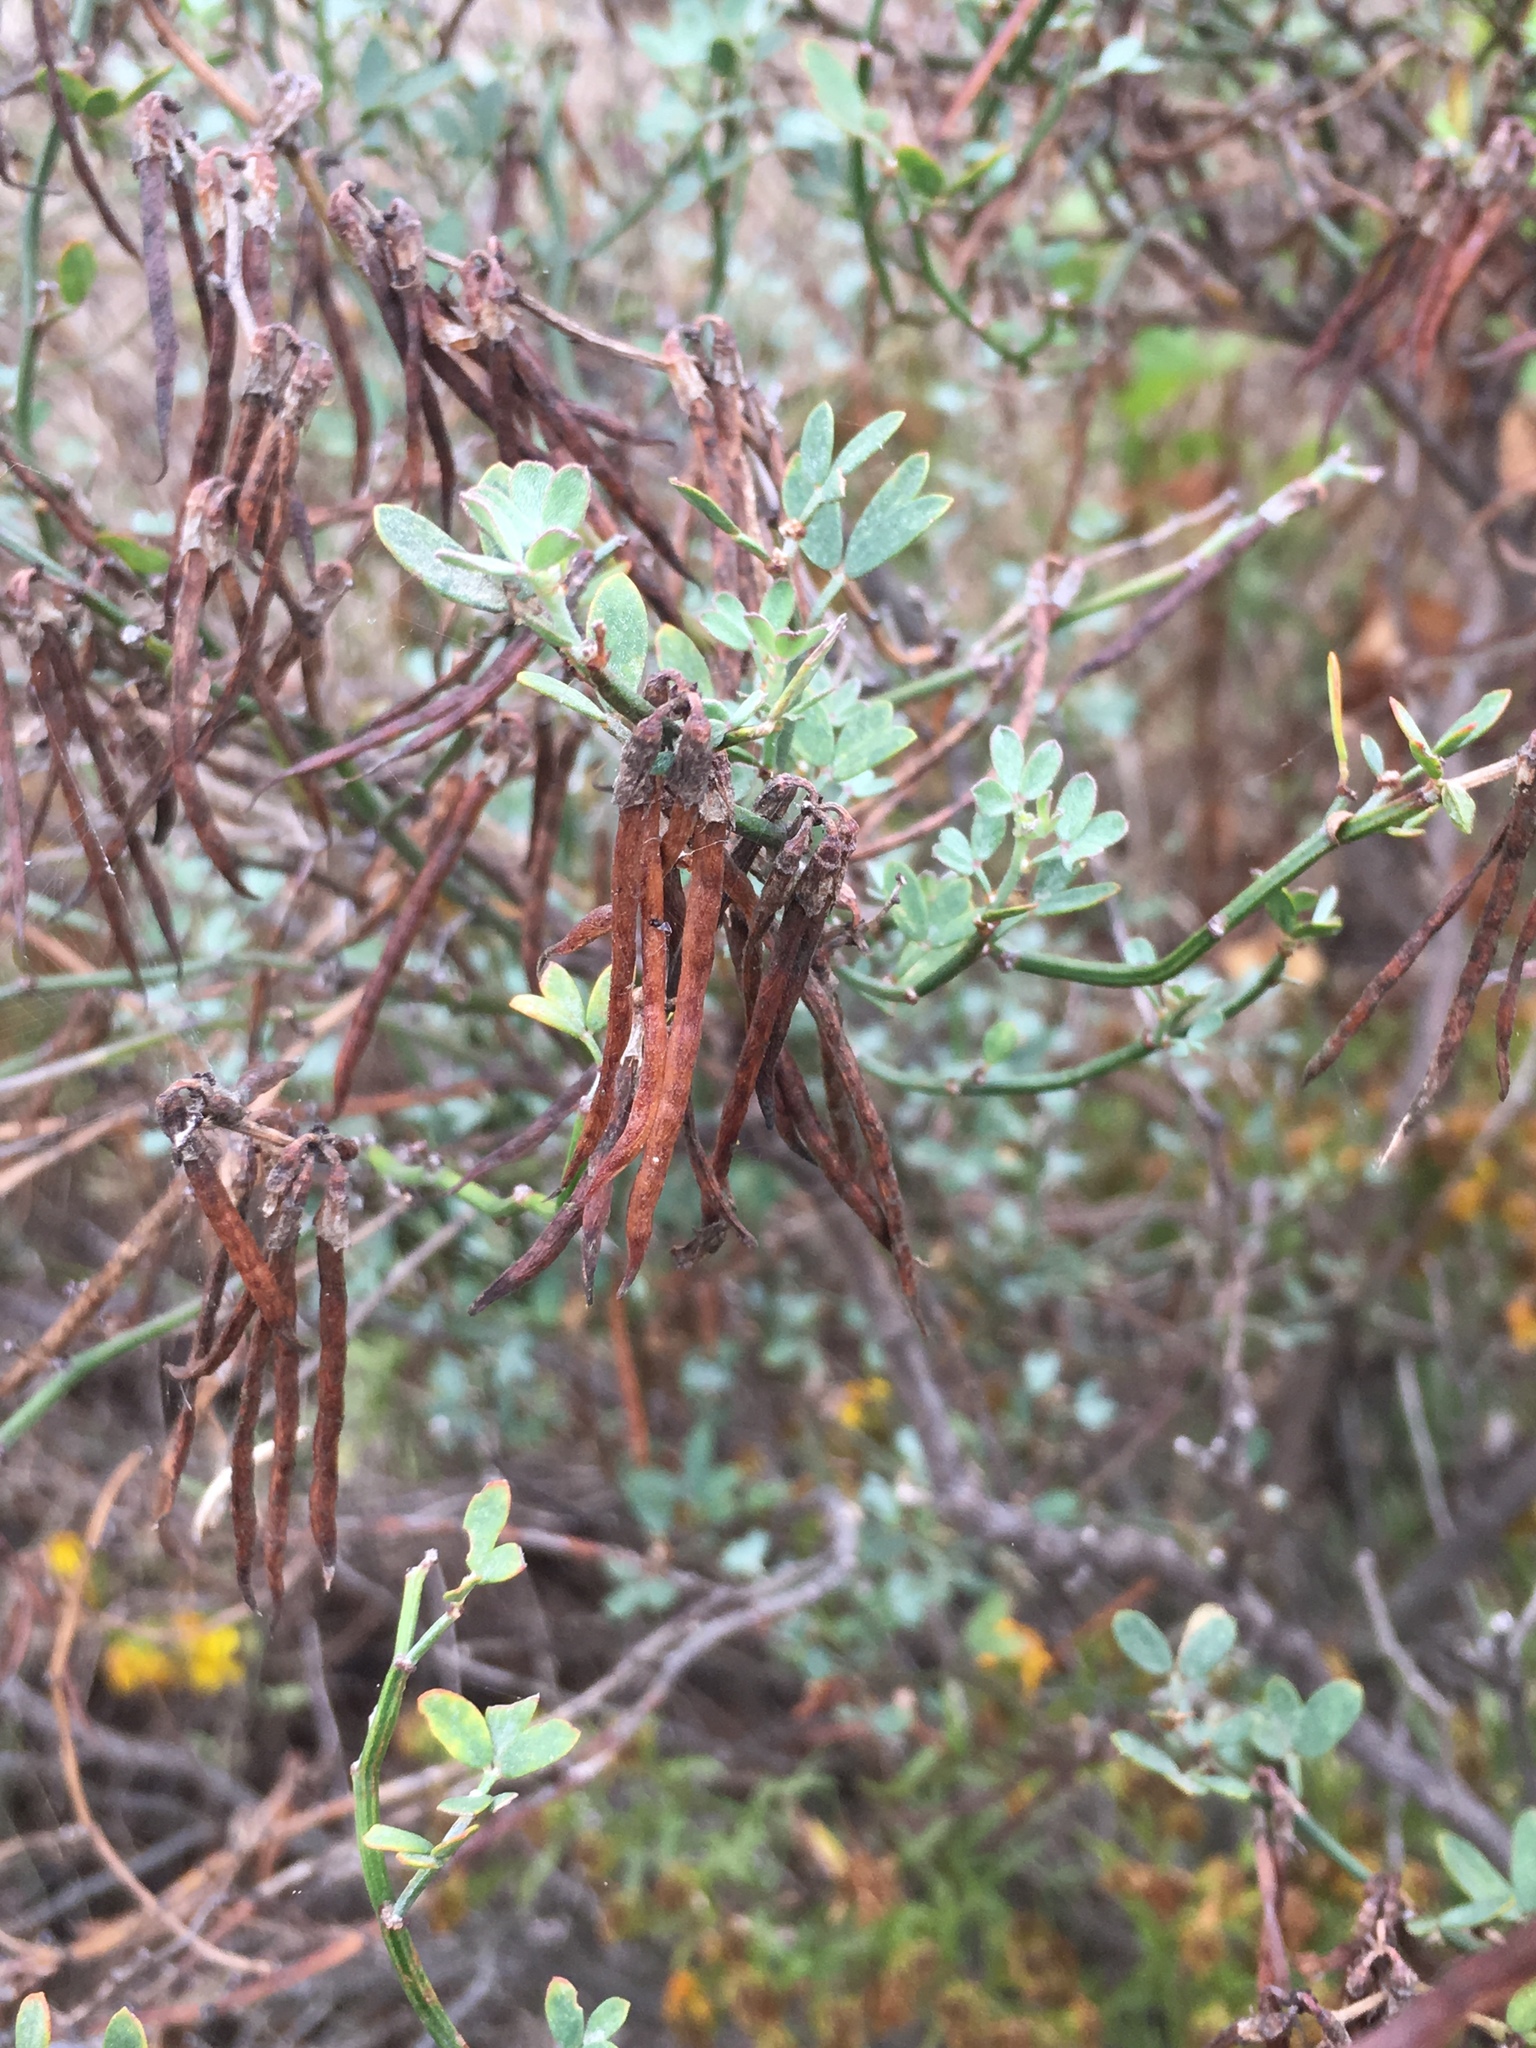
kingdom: Plantae
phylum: Tracheophyta
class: Magnoliopsida
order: Fabales
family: Fabaceae
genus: Acmispon
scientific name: Acmispon dendroideus
